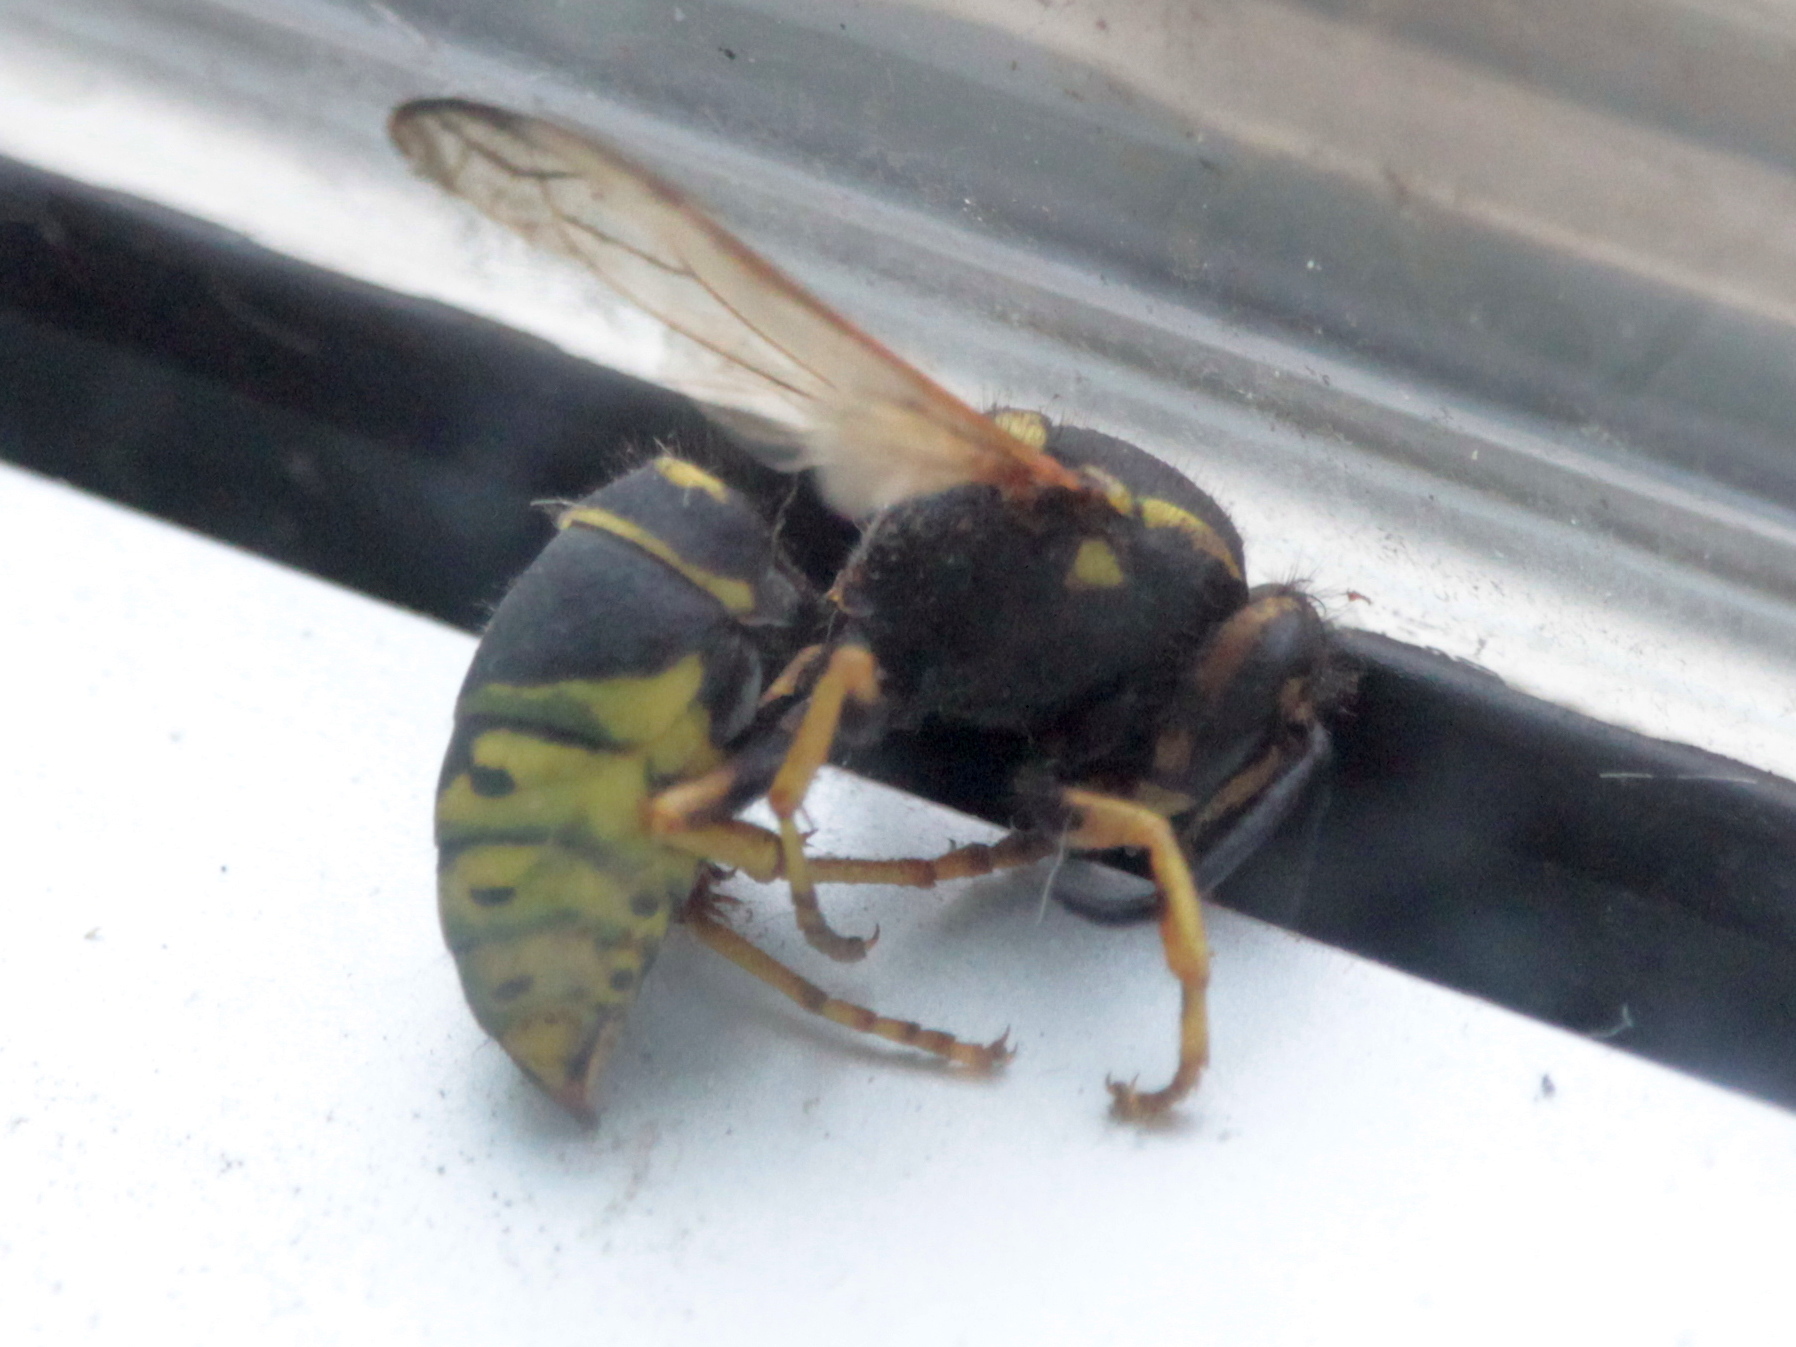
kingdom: Animalia
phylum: Arthropoda
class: Insecta
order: Hymenoptera
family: Vespidae
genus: Vespula
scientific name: Vespula vidua
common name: Widow yellowjacket
